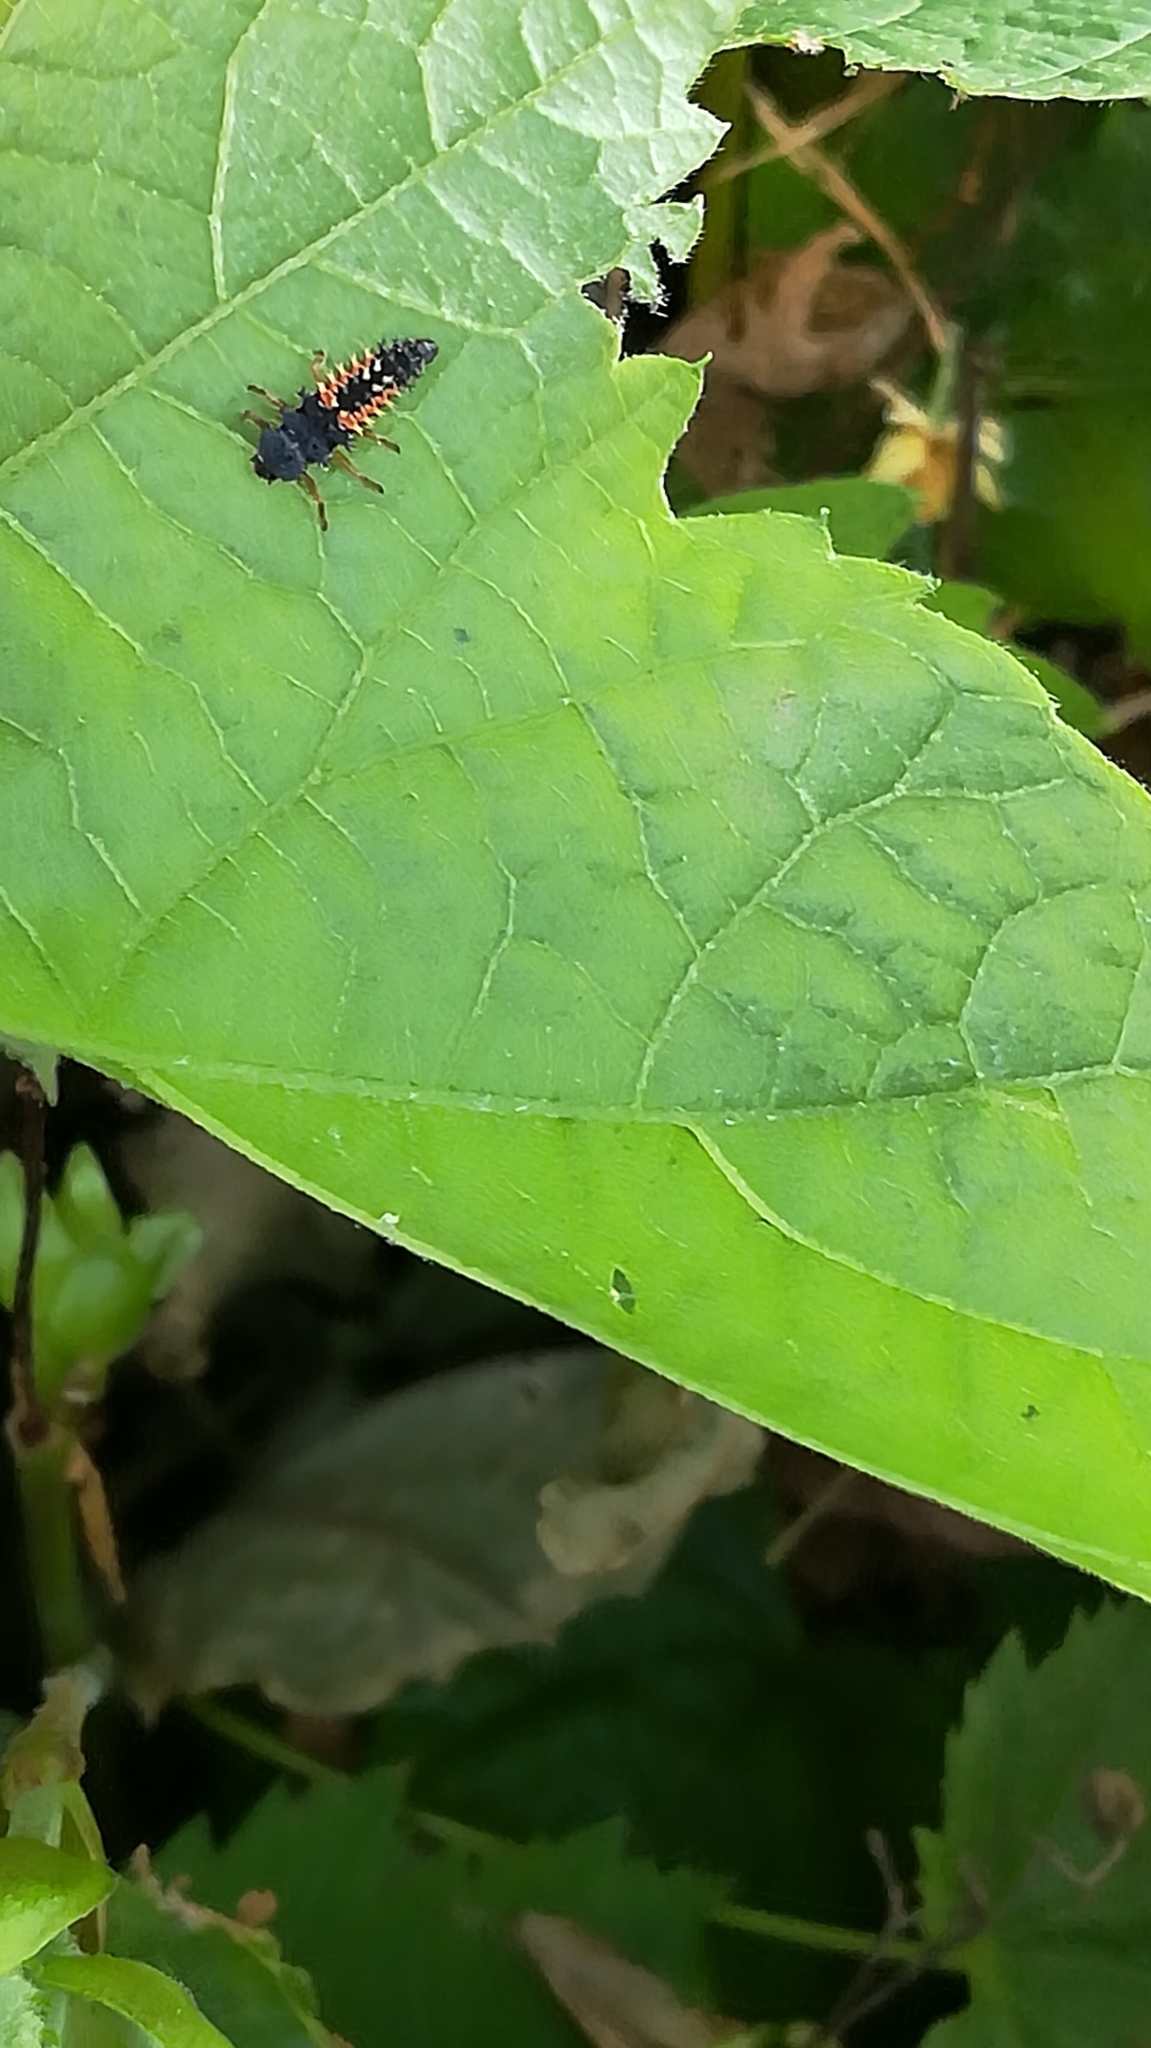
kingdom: Animalia
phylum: Arthropoda
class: Insecta
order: Coleoptera
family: Coccinellidae
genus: Harmonia
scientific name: Harmonia axyridis
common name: Harlequin ladybird
